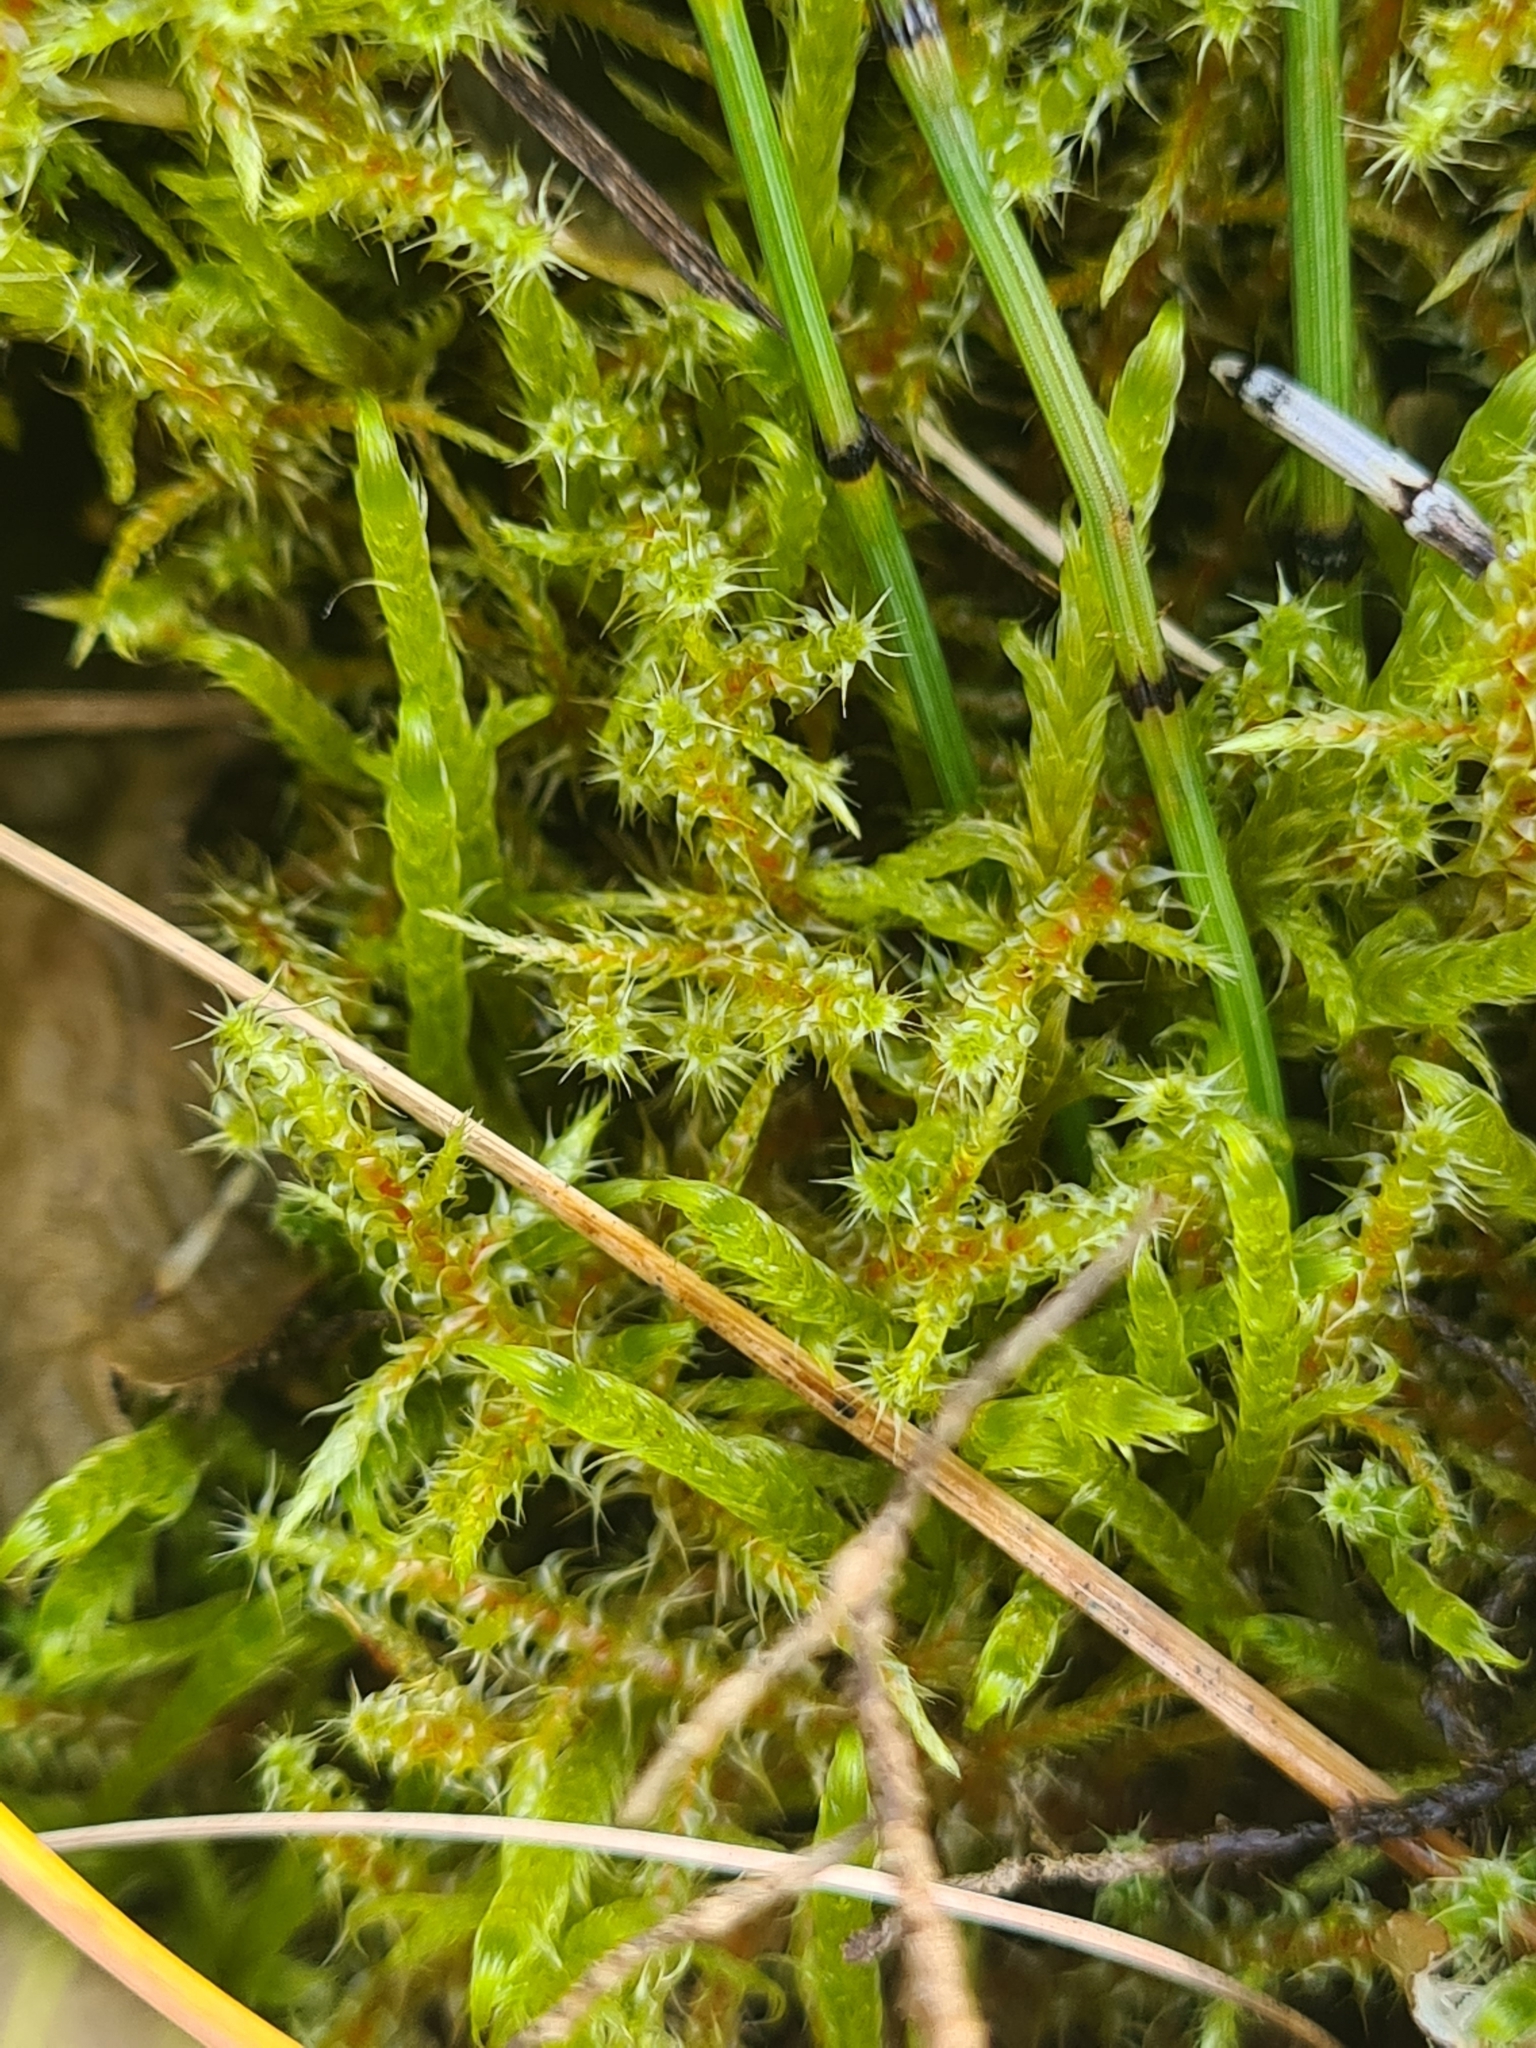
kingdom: Plantae
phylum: Bryophyta
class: Bryopsida
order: Hypnales
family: Hylocomiaceae
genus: Rhytidiadelphus
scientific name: Rhytidiadelphus squarrosus
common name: Springy turf-moss
